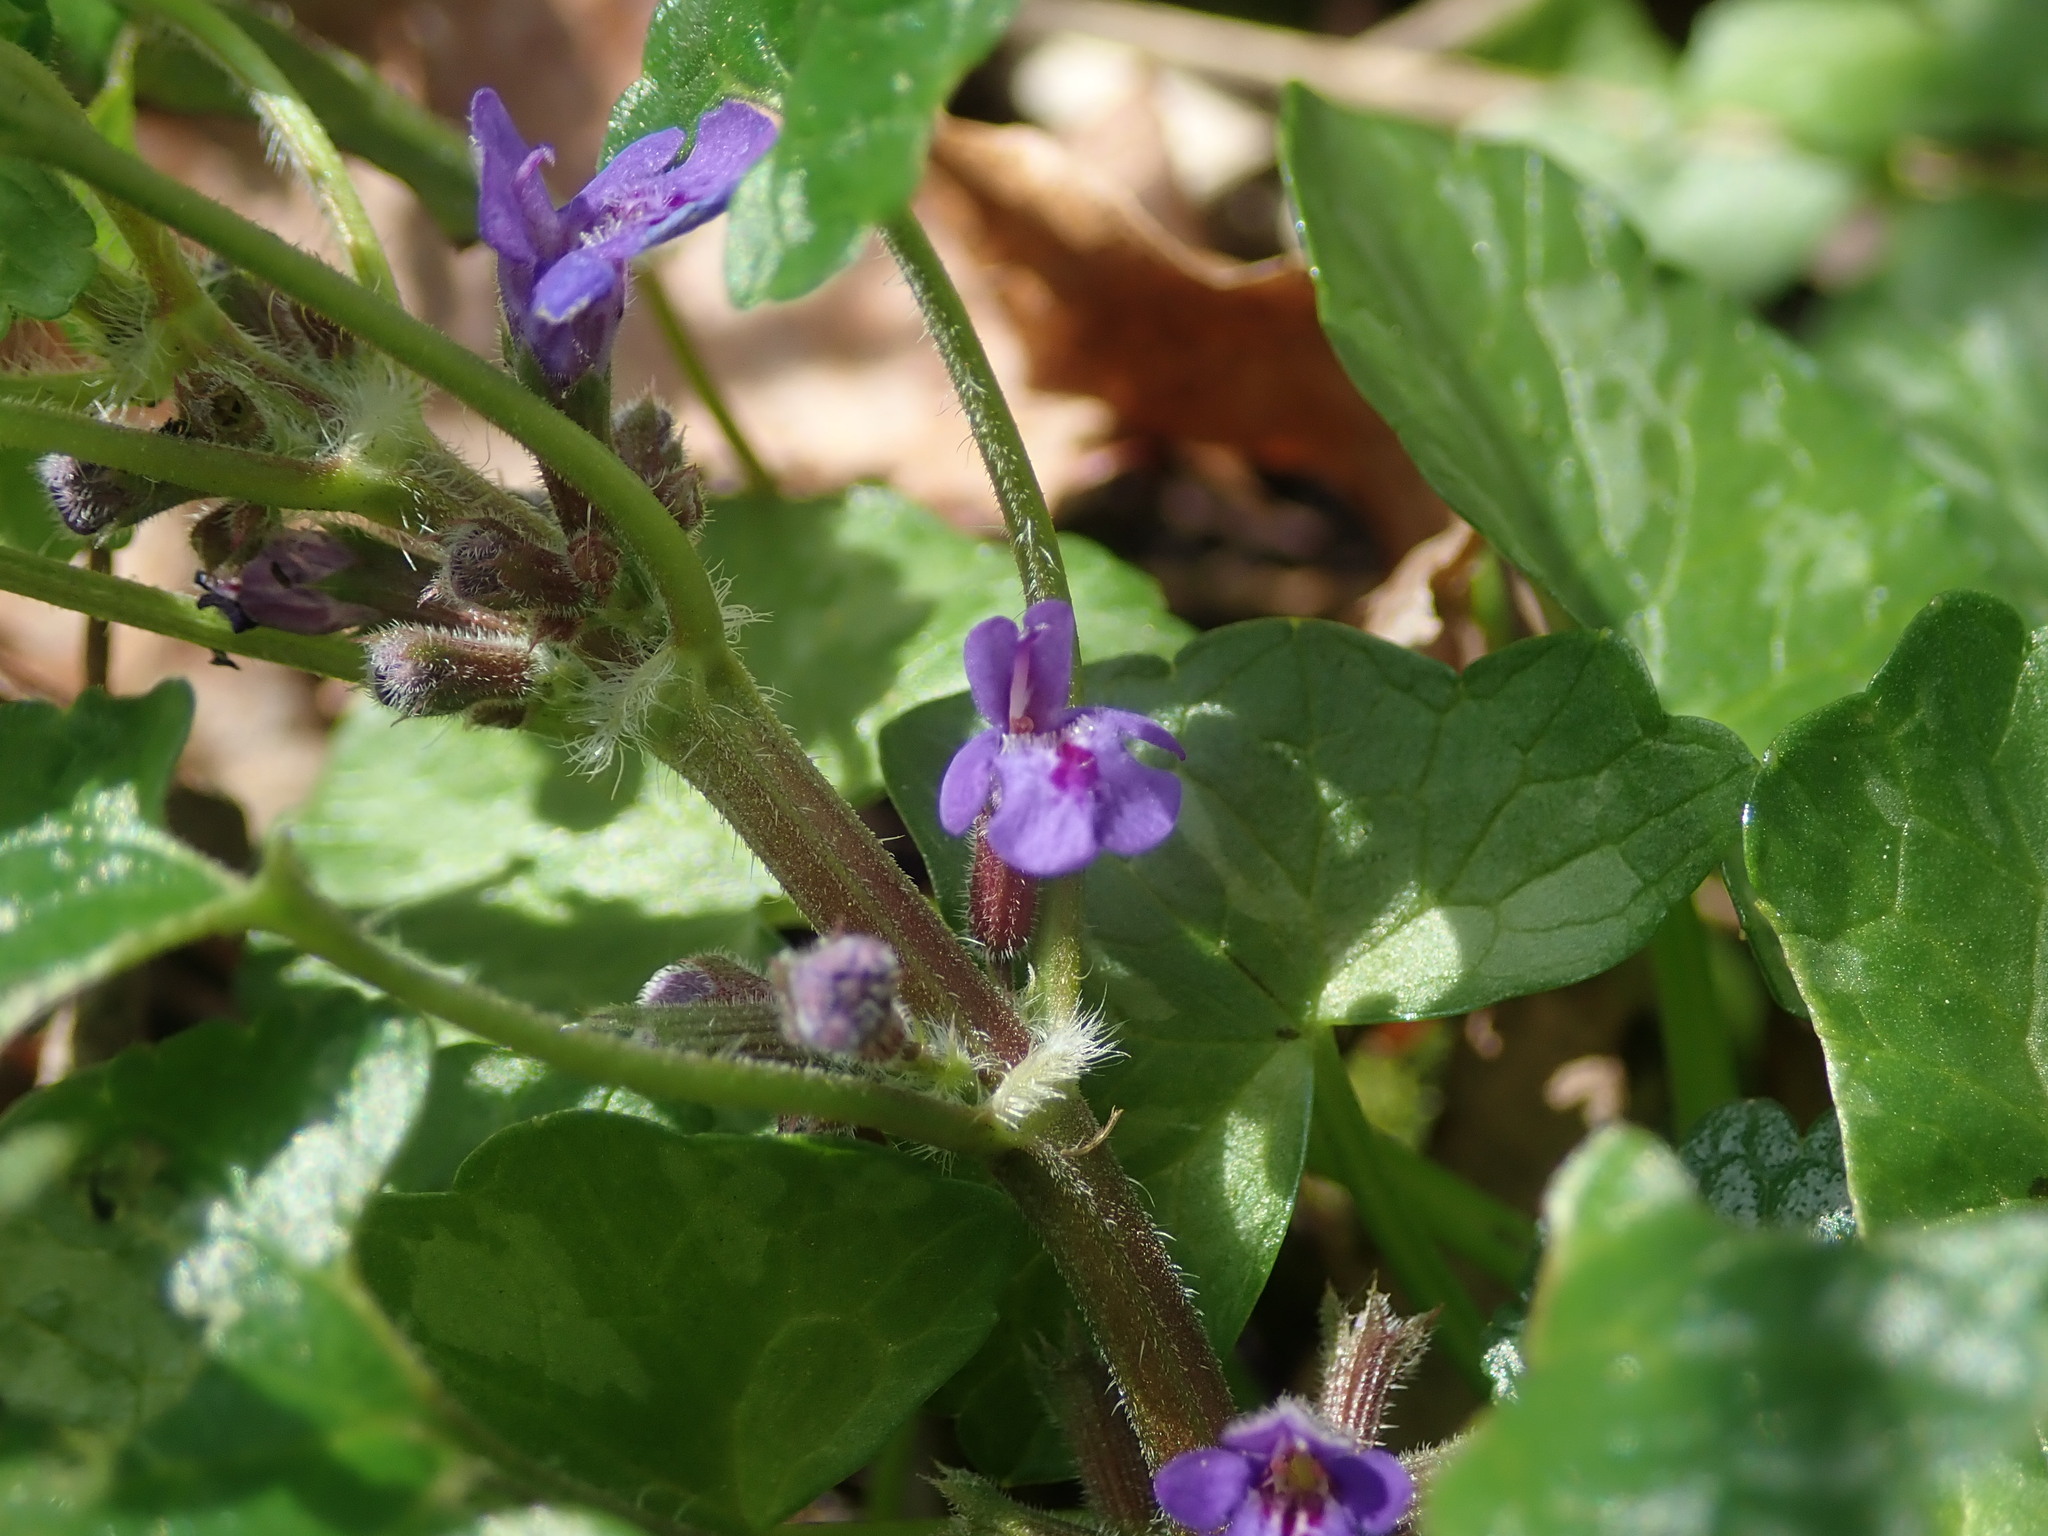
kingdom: Plantae
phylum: Tracheophyta
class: Magnoliopsida
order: Lamiales
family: Lamiaceae
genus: Glechoma
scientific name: Glechoma hederacea
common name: Ground ivy
